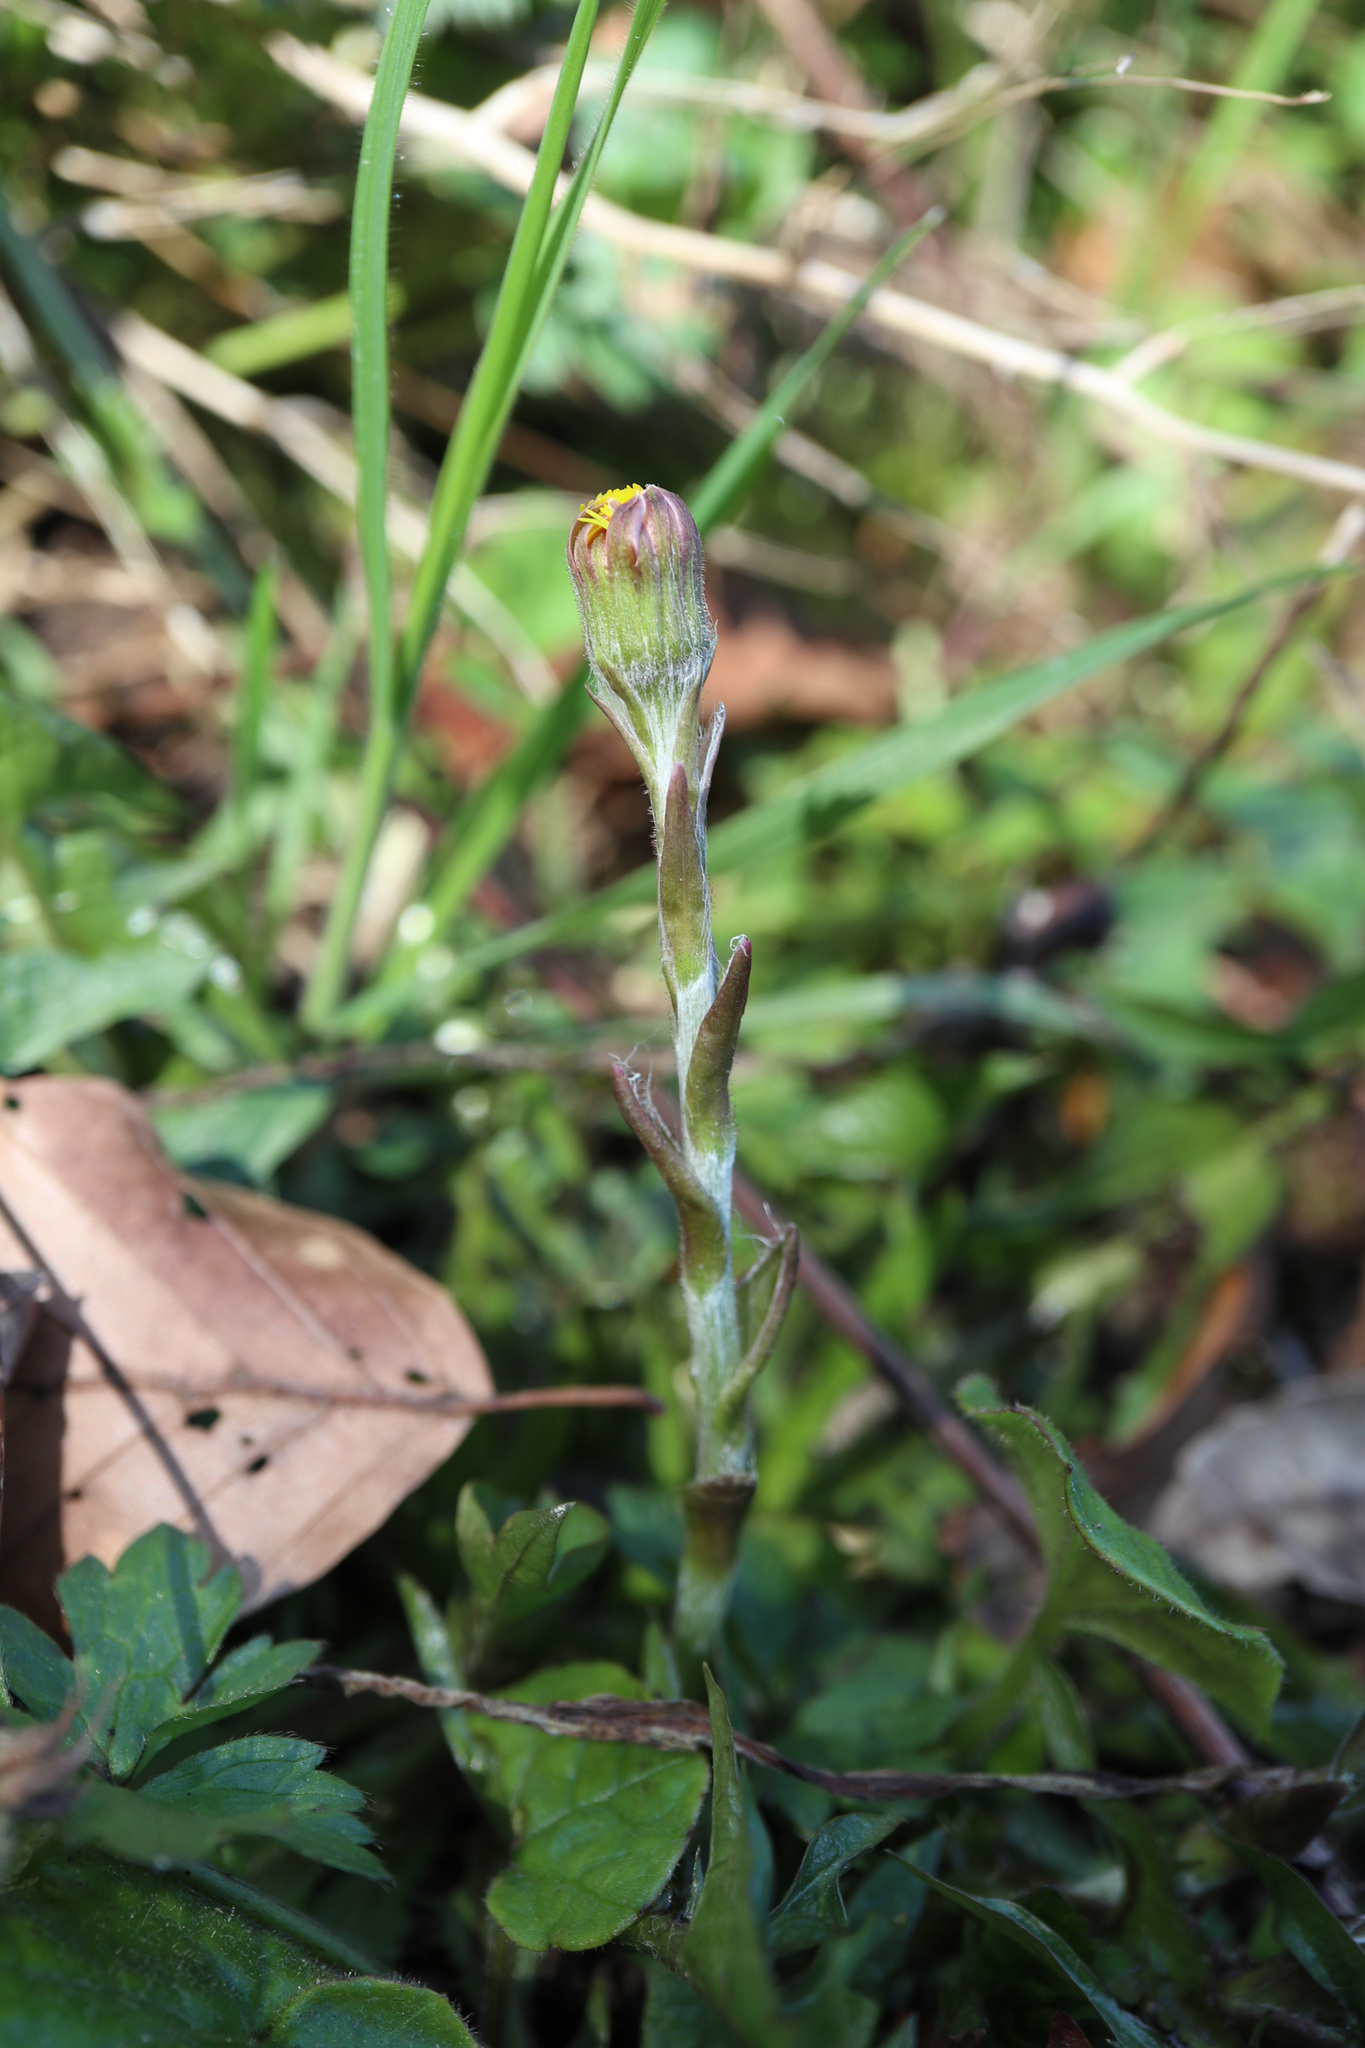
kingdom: Plantae
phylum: Tracheophyta
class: Magnoliopsida
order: Asterales
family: Asteraceae
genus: Tussilago
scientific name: Tussilago farfara
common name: Coltsfoot
